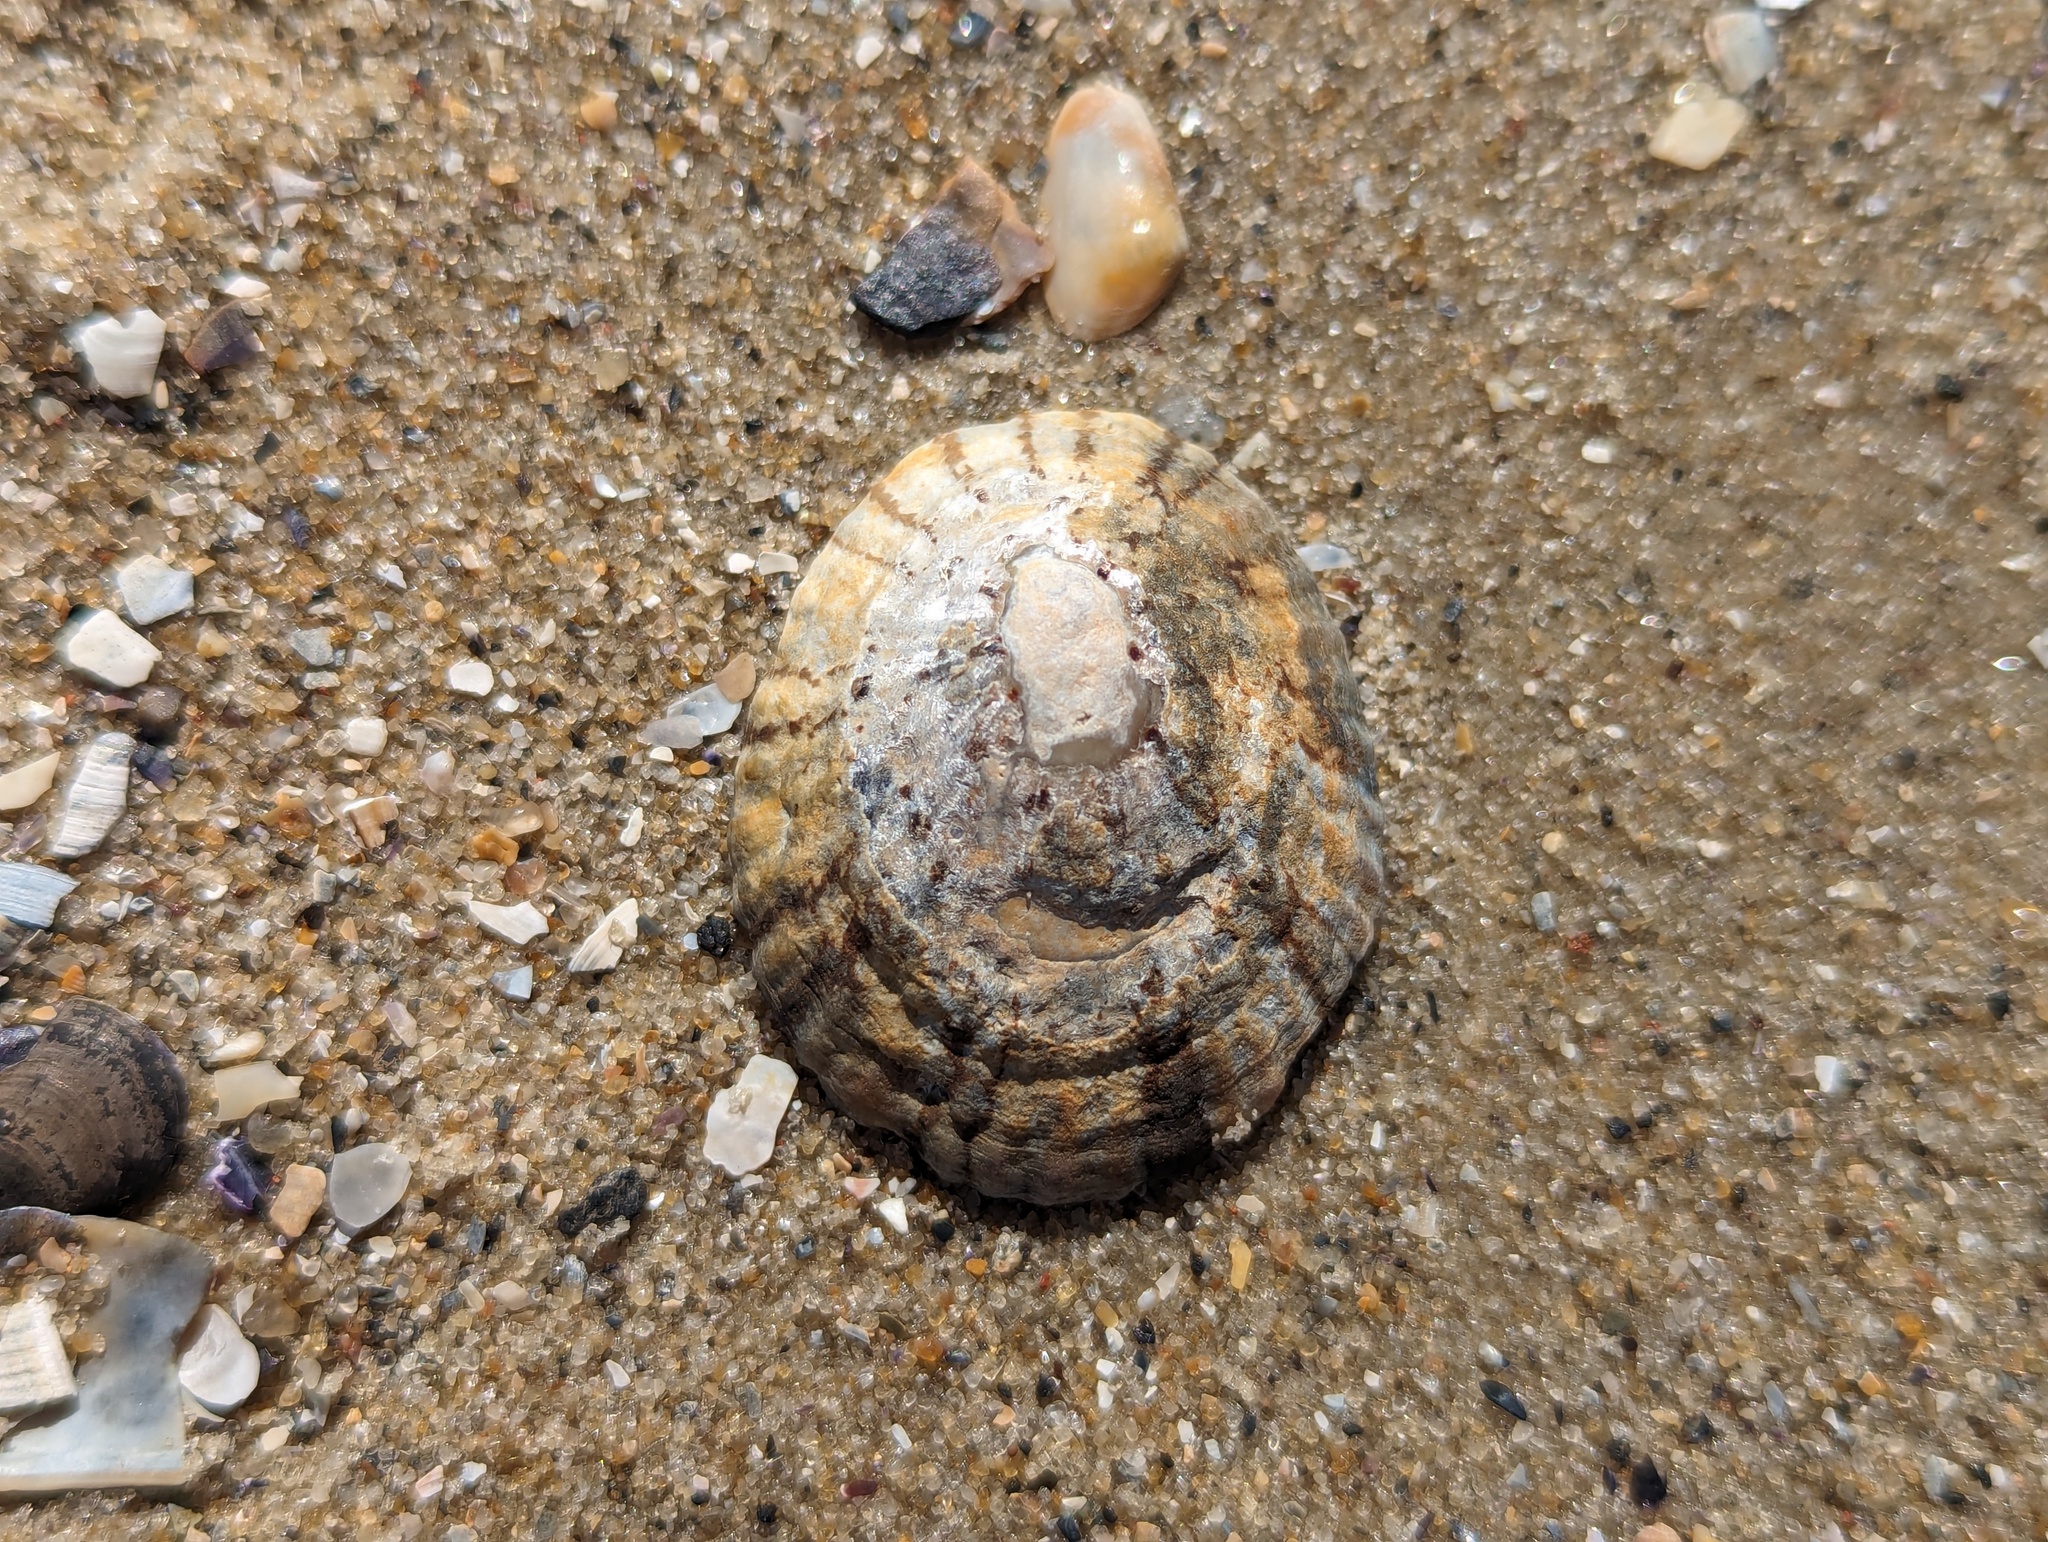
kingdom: Animalia
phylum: Mollusca
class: Gastropoda
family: Nacellidae
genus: Cellana
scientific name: Cellana tramoserica
